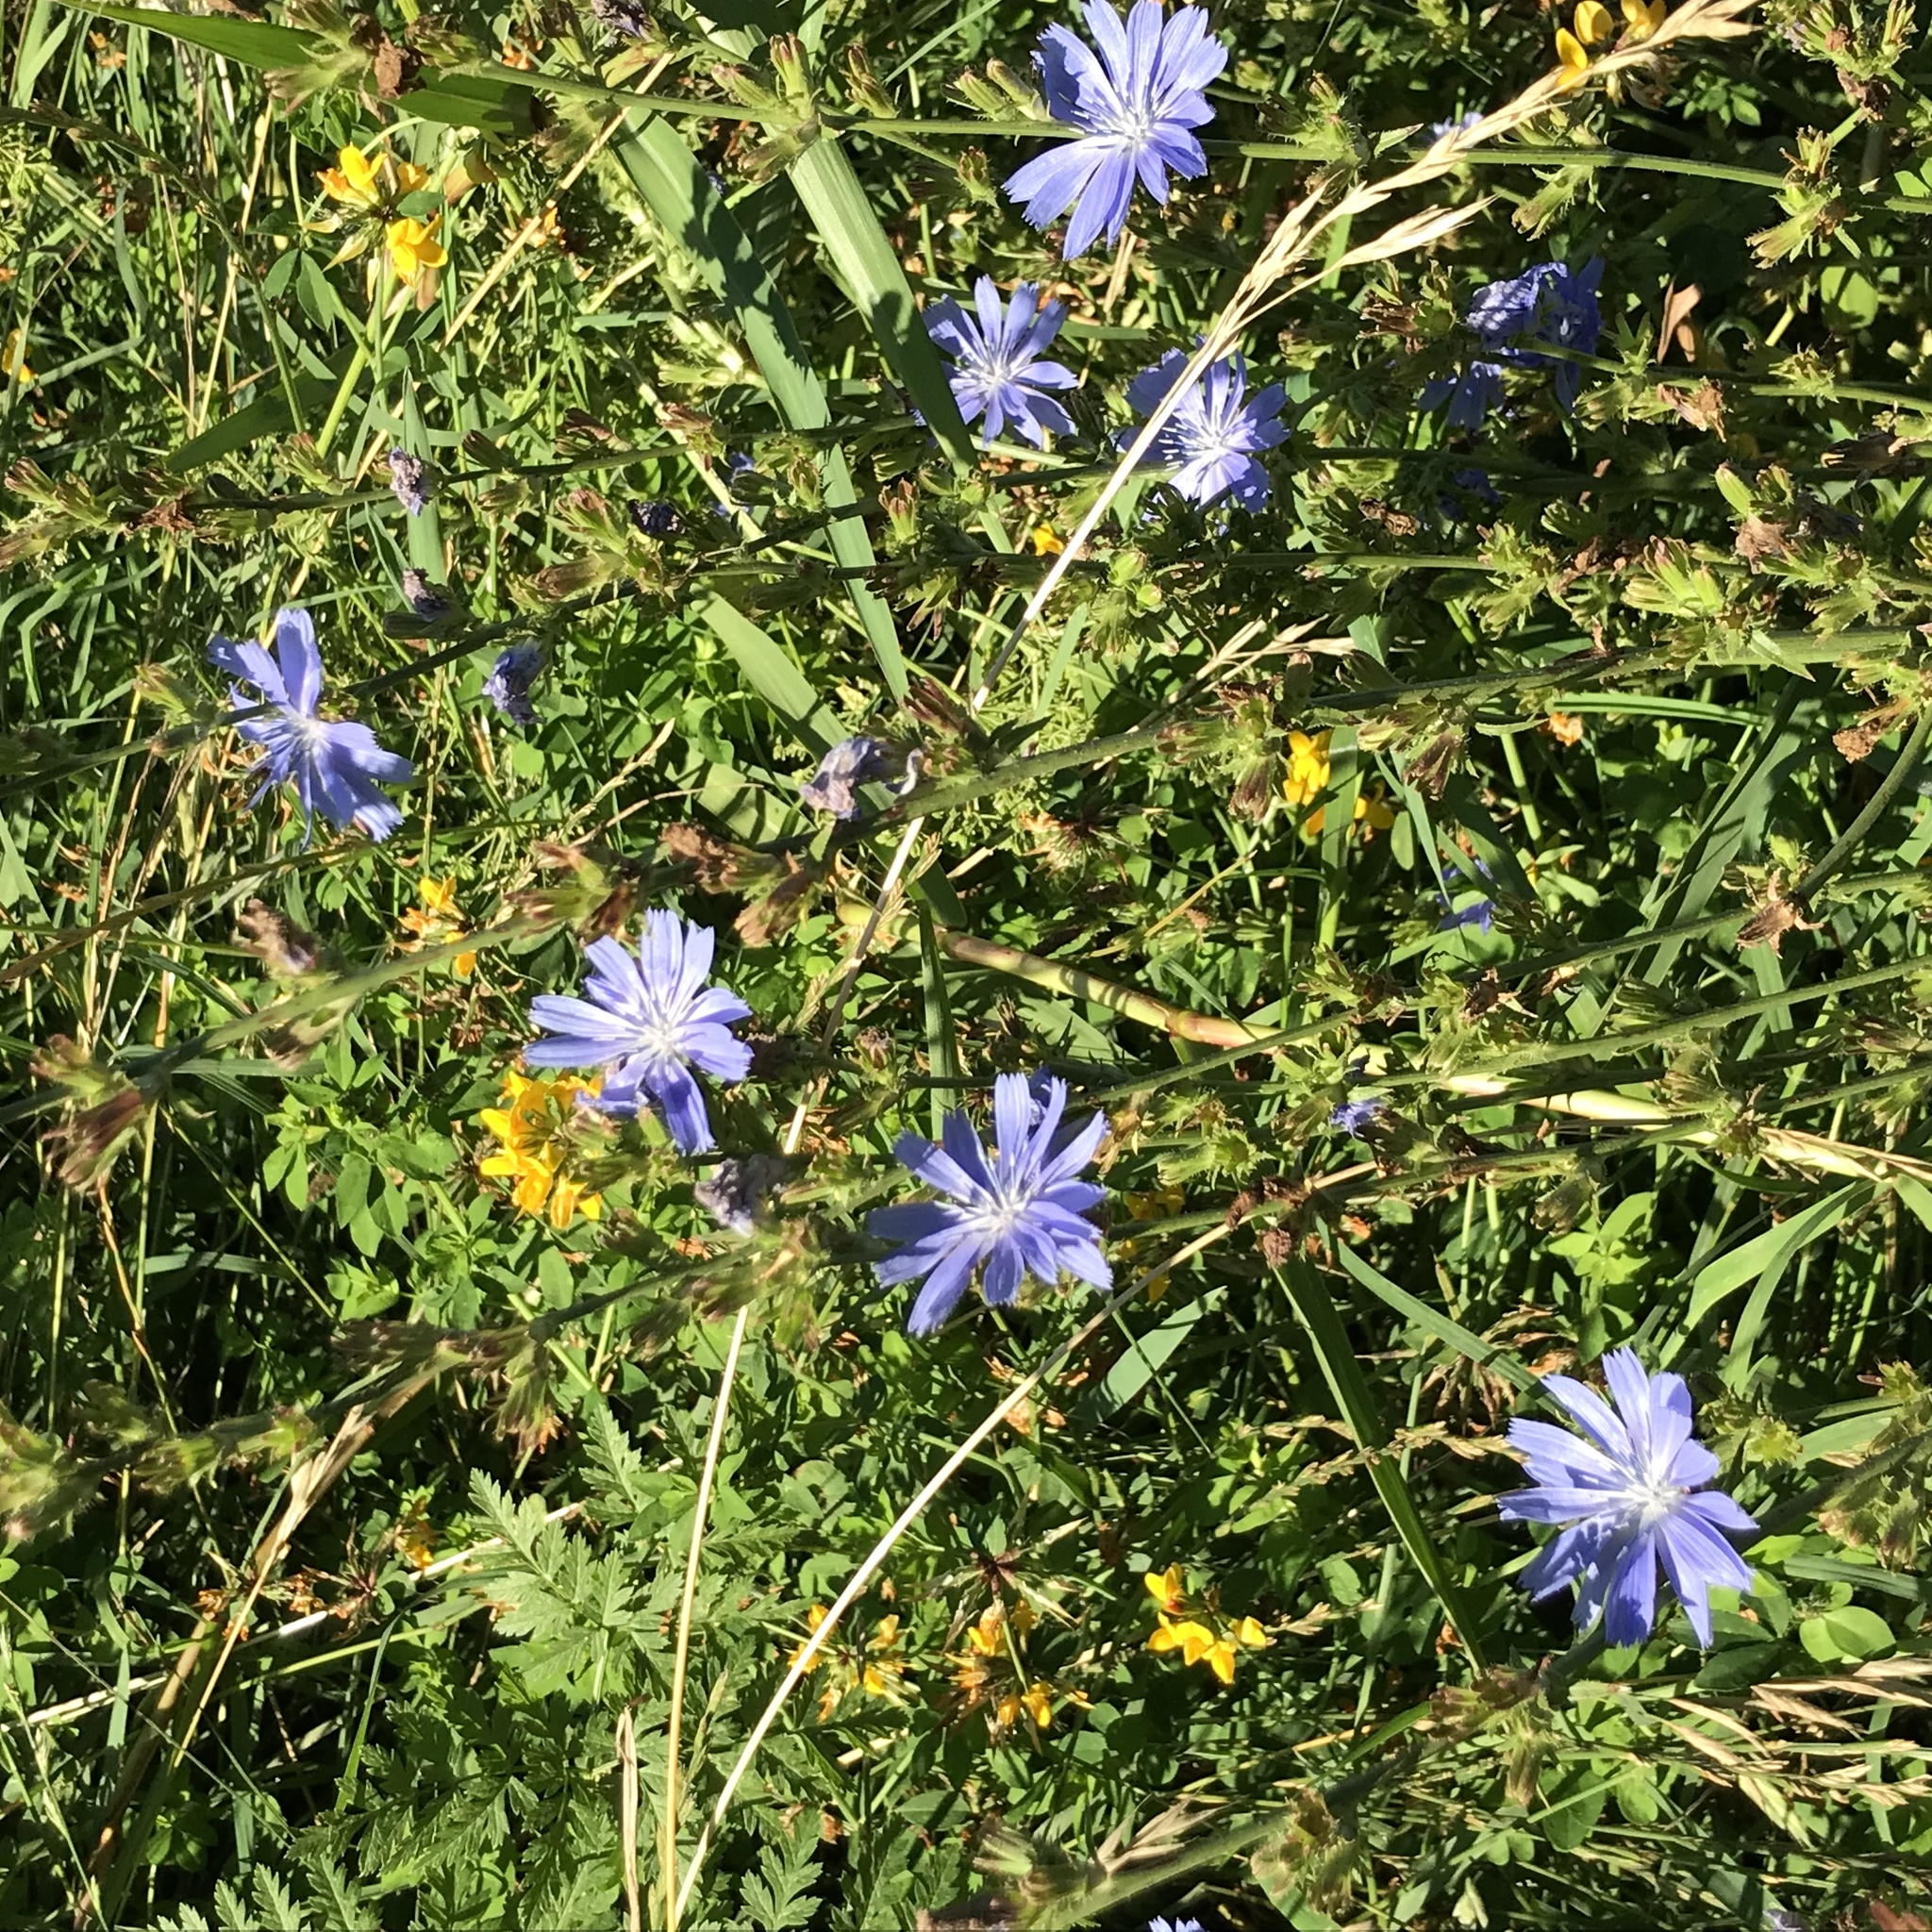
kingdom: Plantae
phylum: Tracheophyta
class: Magnoliopsida
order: Asterales
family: Asteraceae
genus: Cichorium
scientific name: Cichorium intybus
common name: Chicory
